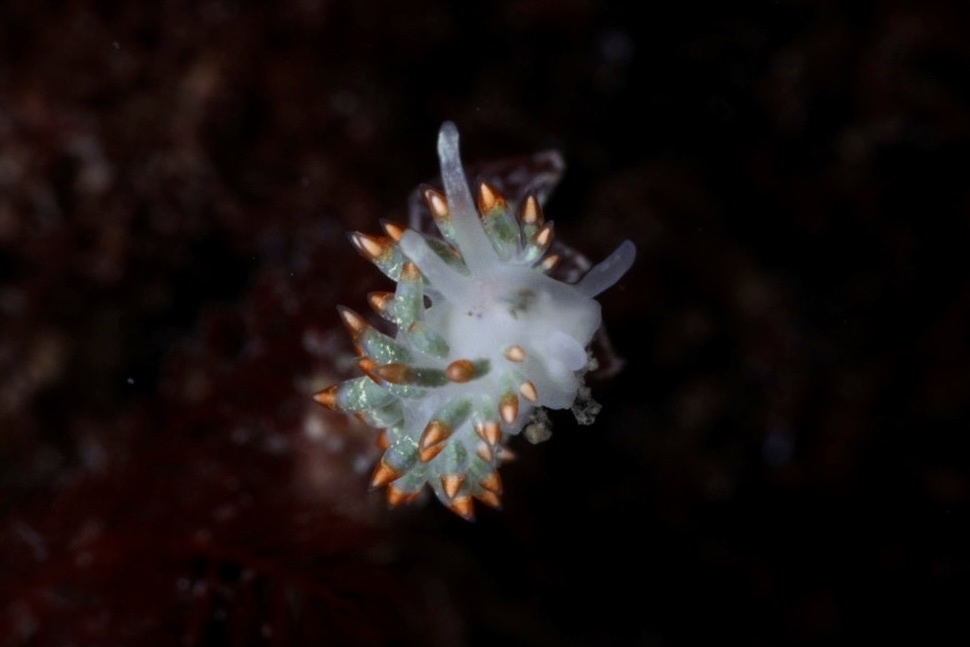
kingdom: Animalia
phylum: Mollusca
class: Gastropoda
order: Nudibranchia
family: Trinchesiidae
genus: Trinchesia
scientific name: Trinchesia cuanensis
